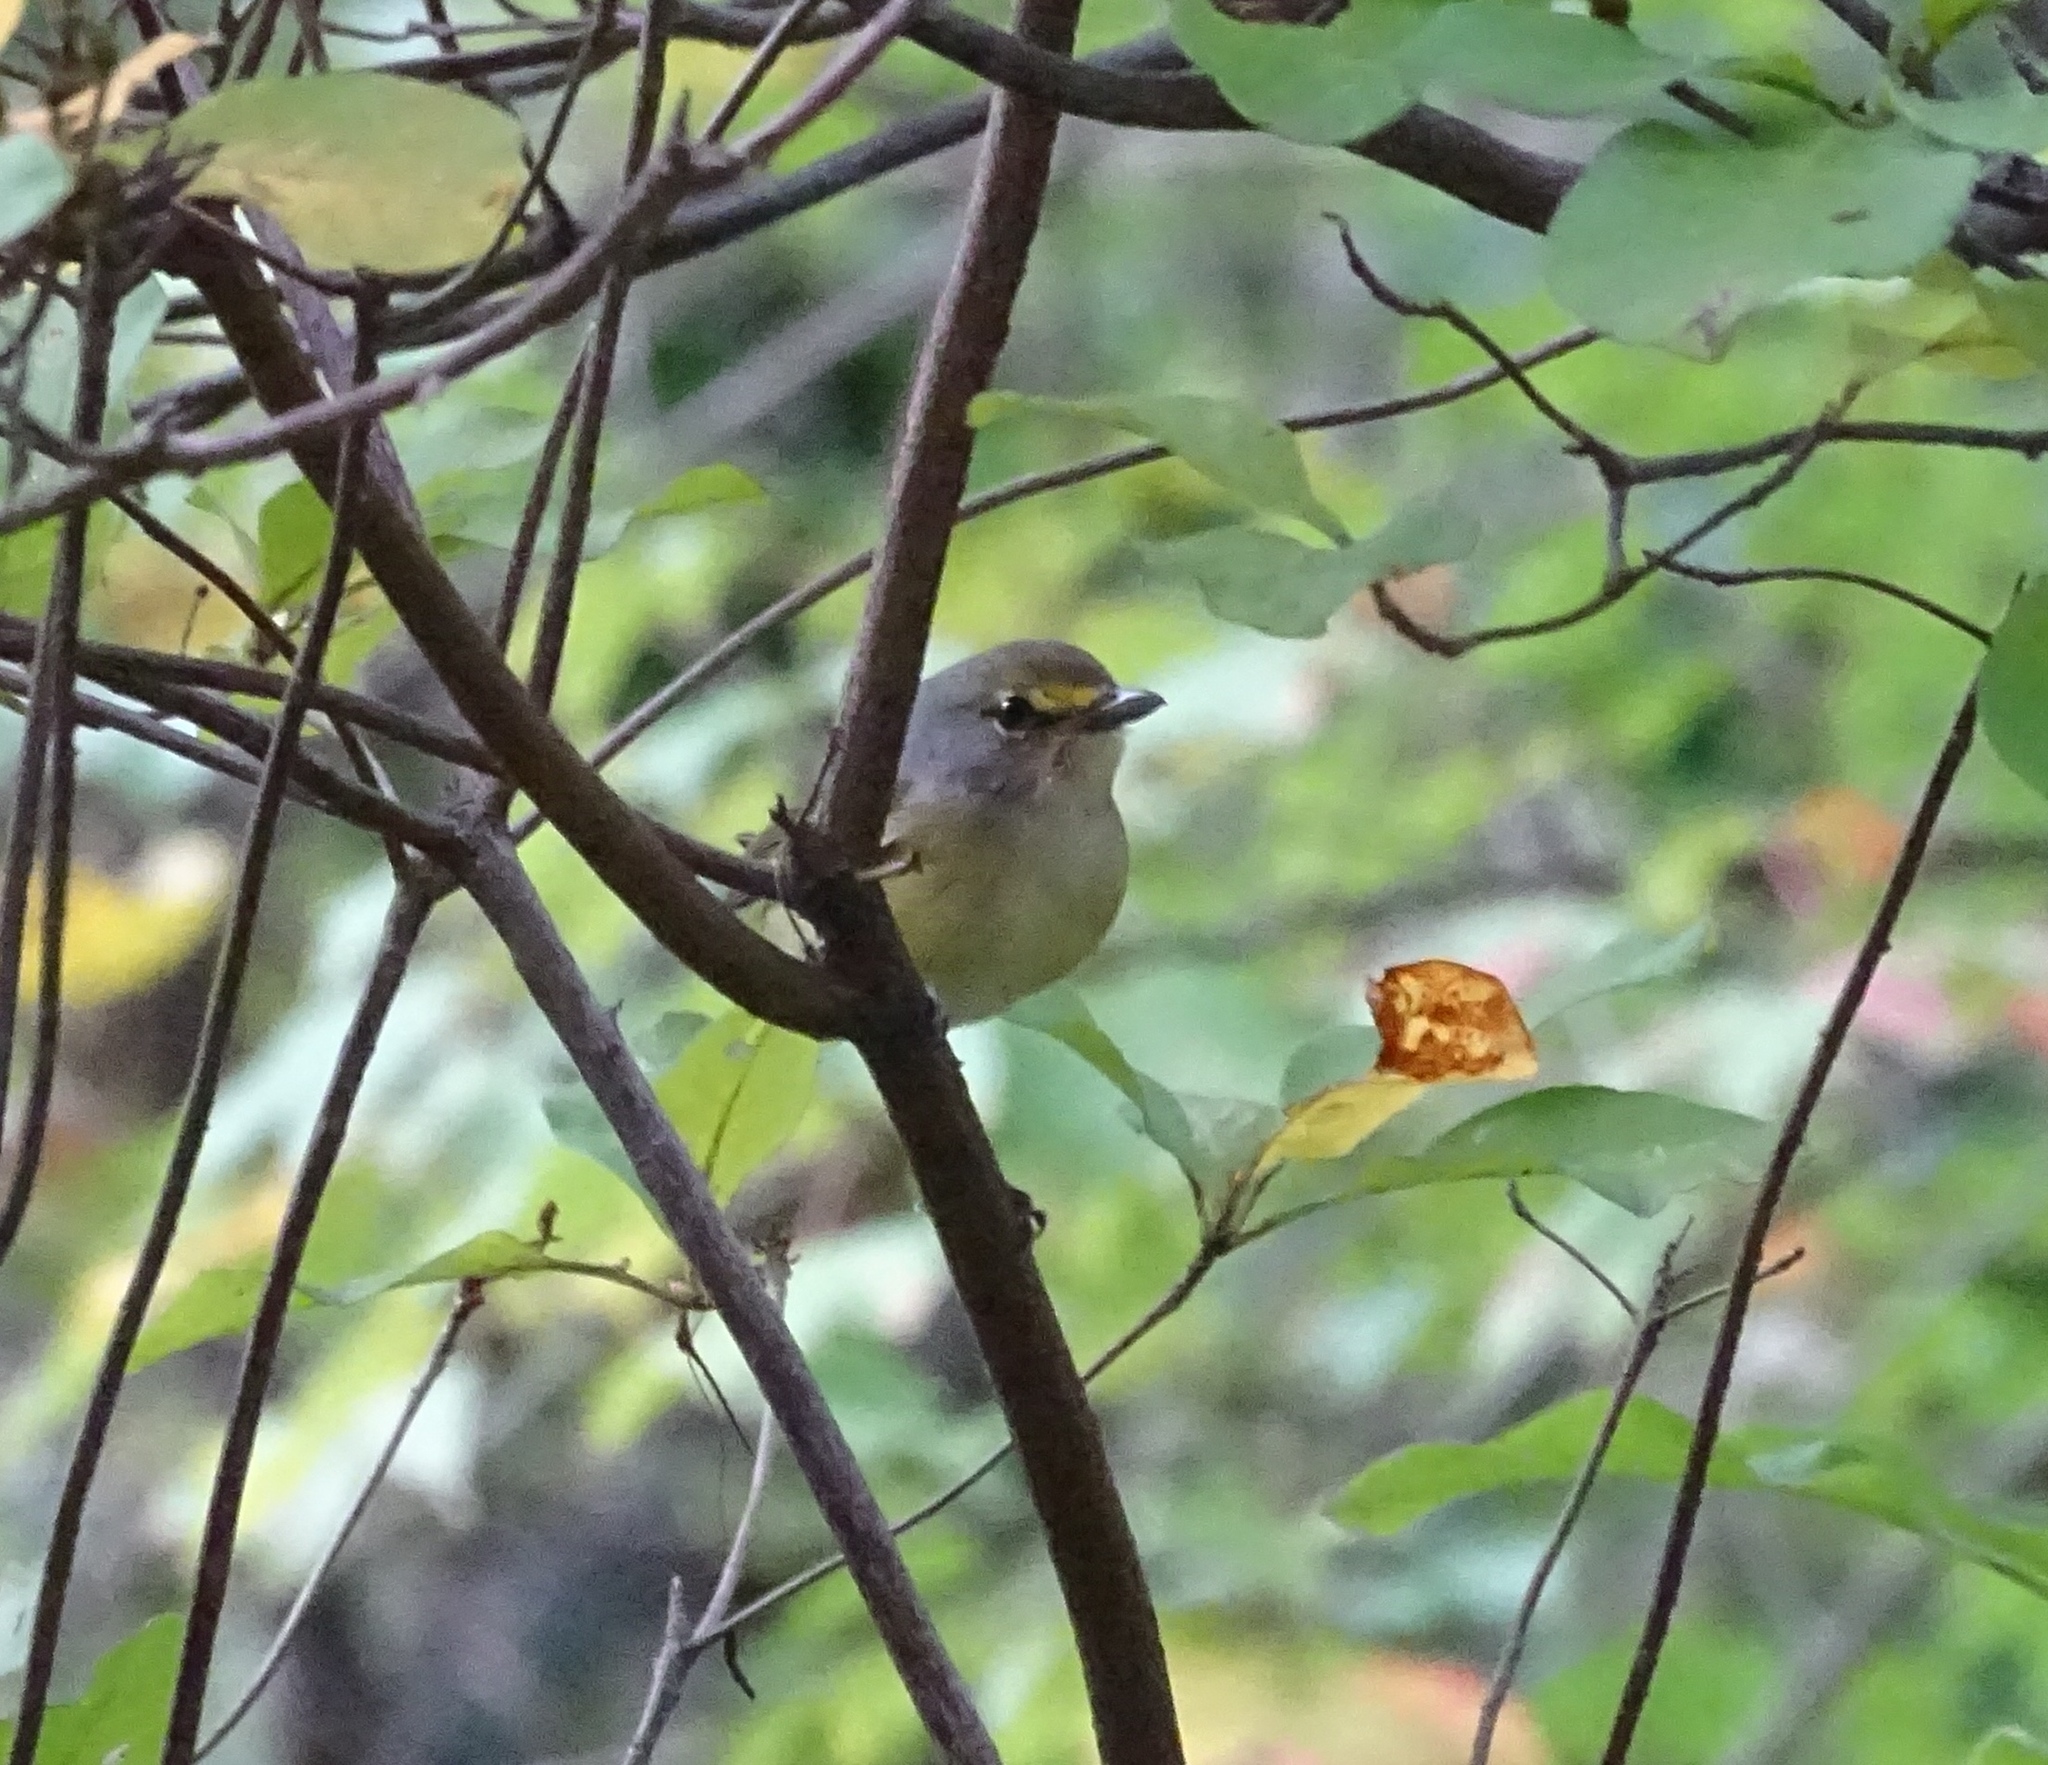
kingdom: Animalia
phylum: Chordata
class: Aves
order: Passeriformes
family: Vireonidae
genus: Vireo
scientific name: Vireo griseus
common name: White-eyed vireo
